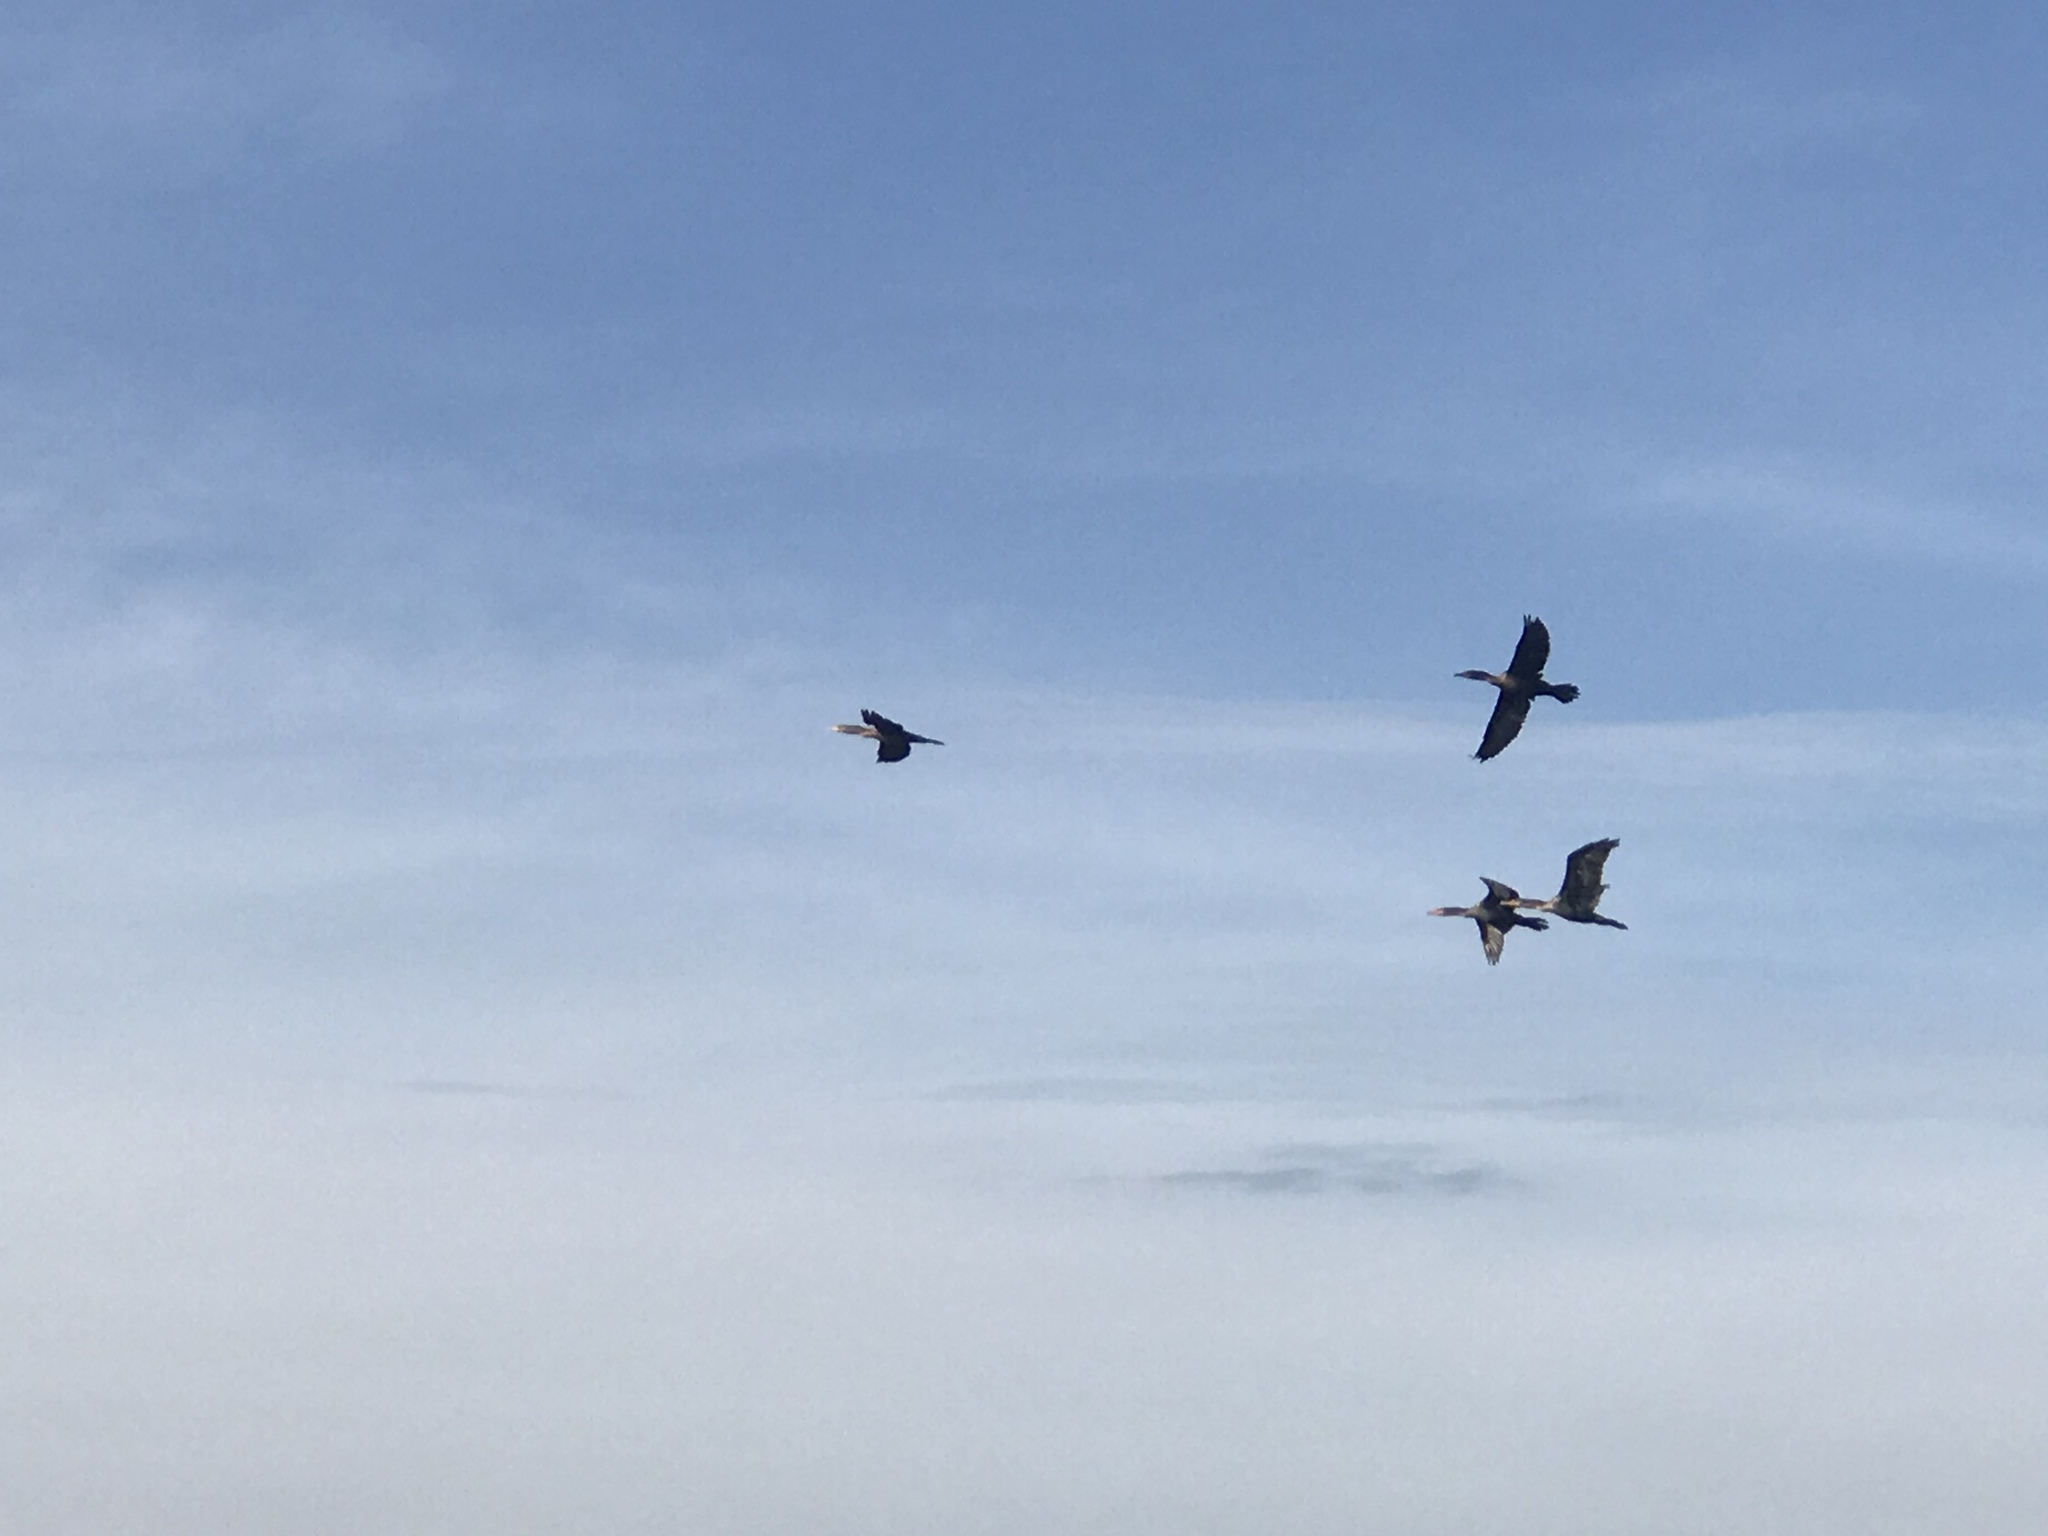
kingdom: Animalia
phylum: Chordata
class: Aves
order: Suliformes
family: Phalacrocoracidae
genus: Phalacrocorax
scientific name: Phalacrocorax auritus
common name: Double-crested cormorant
